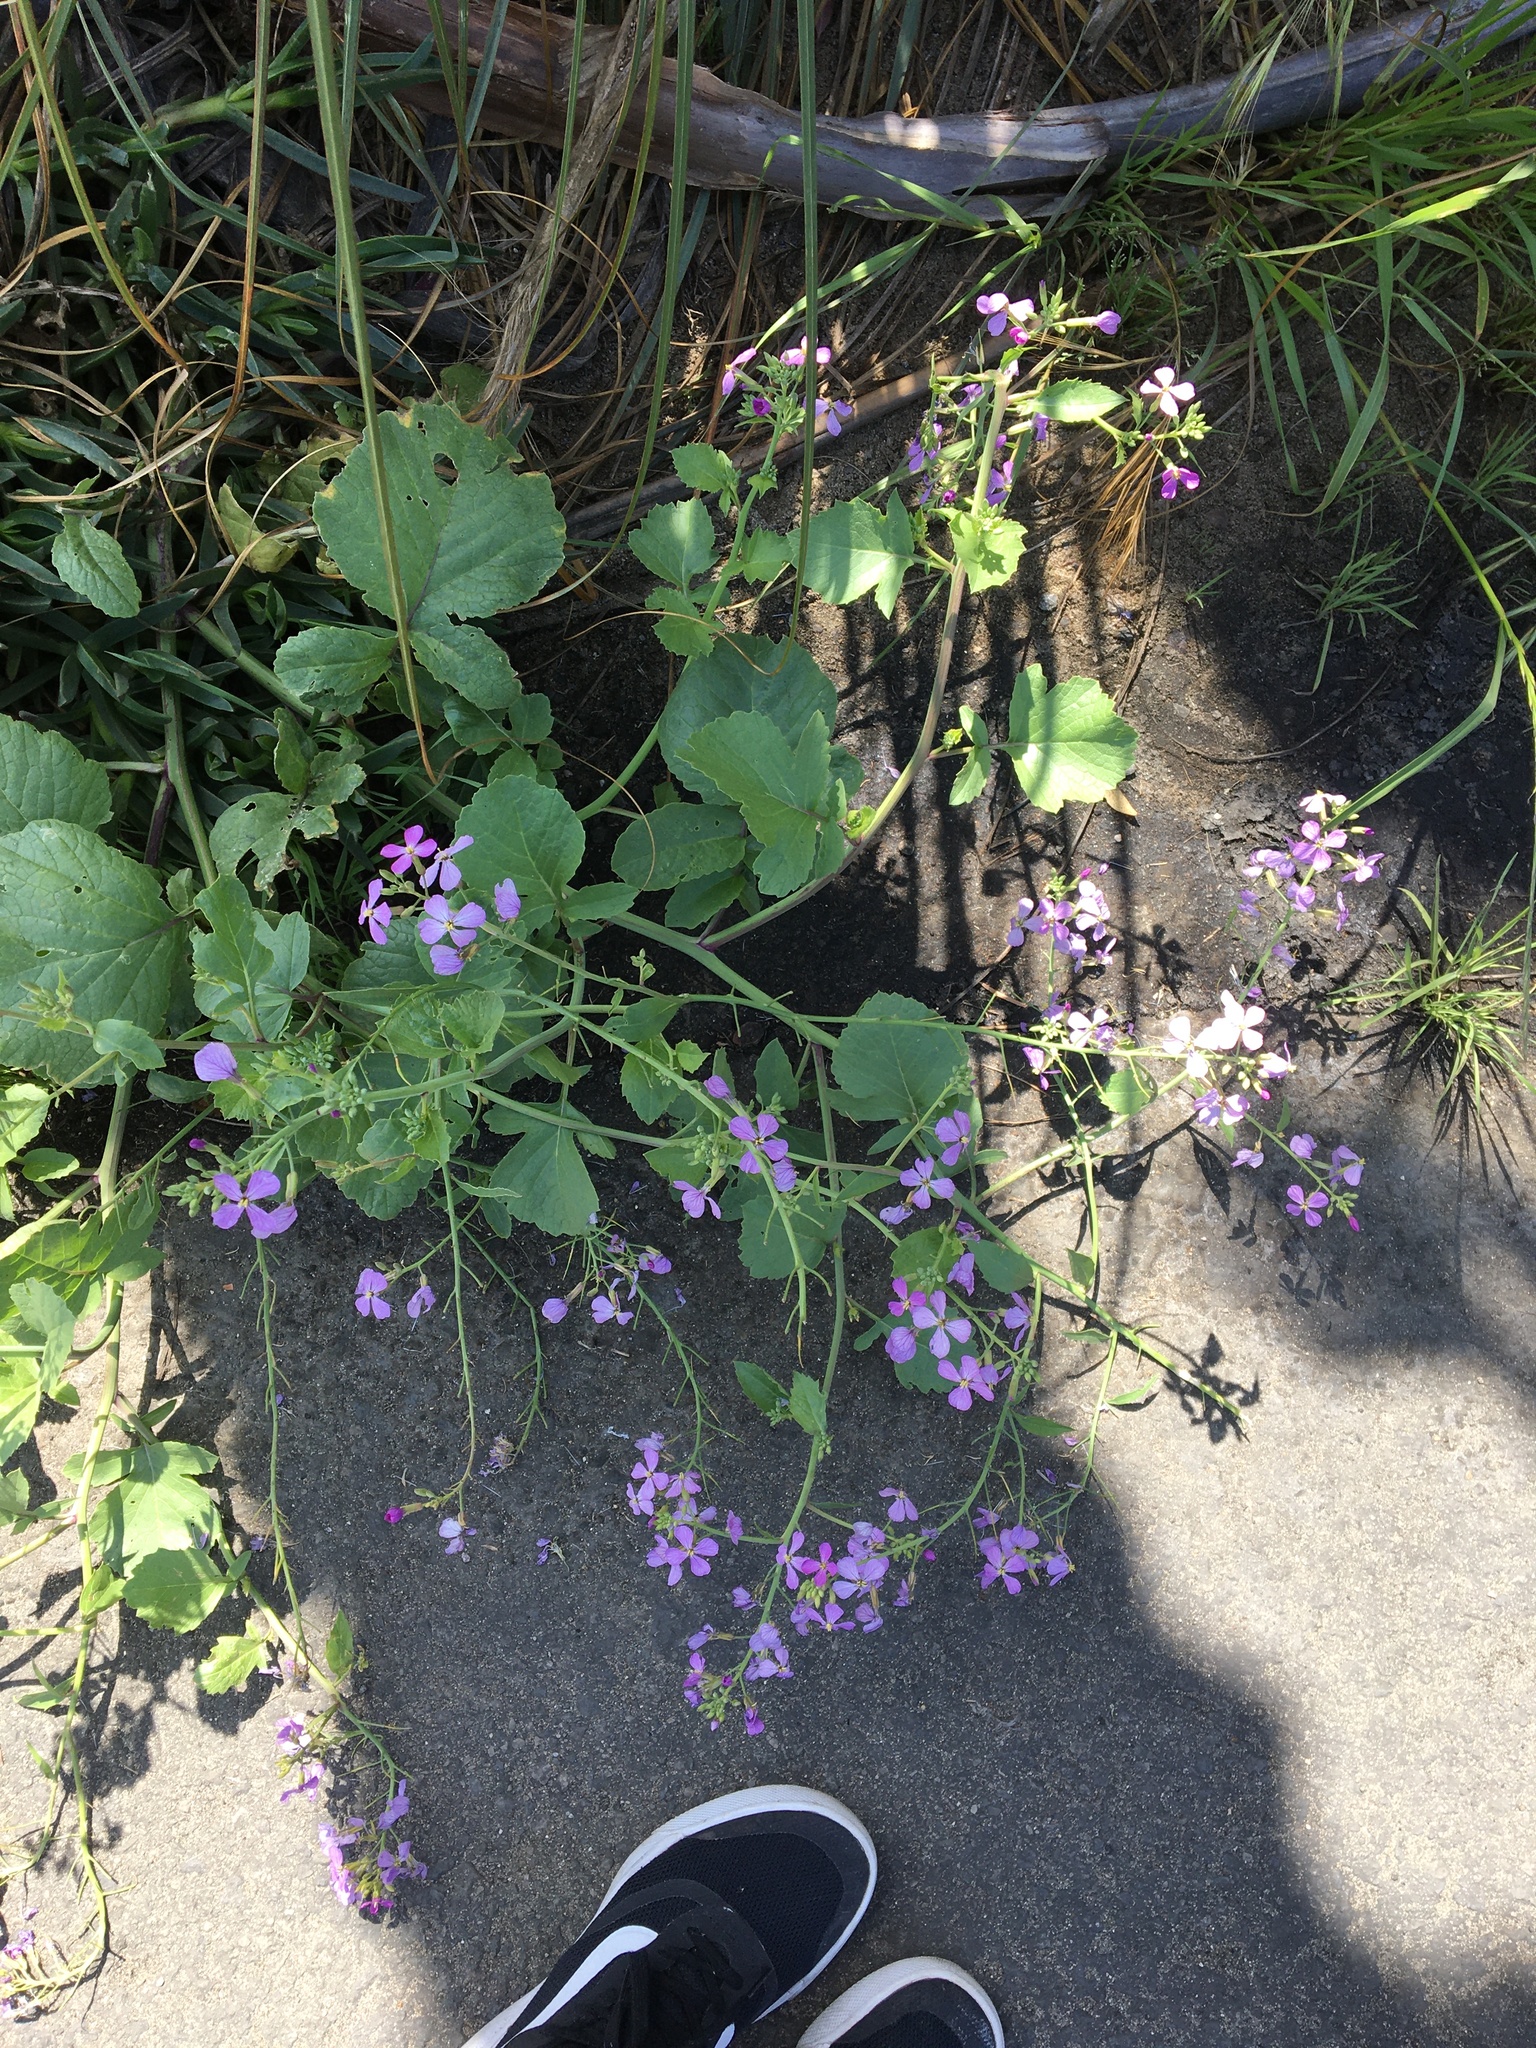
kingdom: Plantae
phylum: Tracheophyta
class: Magnoliopsida
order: Brassicales
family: Brassicaceae
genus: Raphanus
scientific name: Raphanus sativus
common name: Cultivated radish
